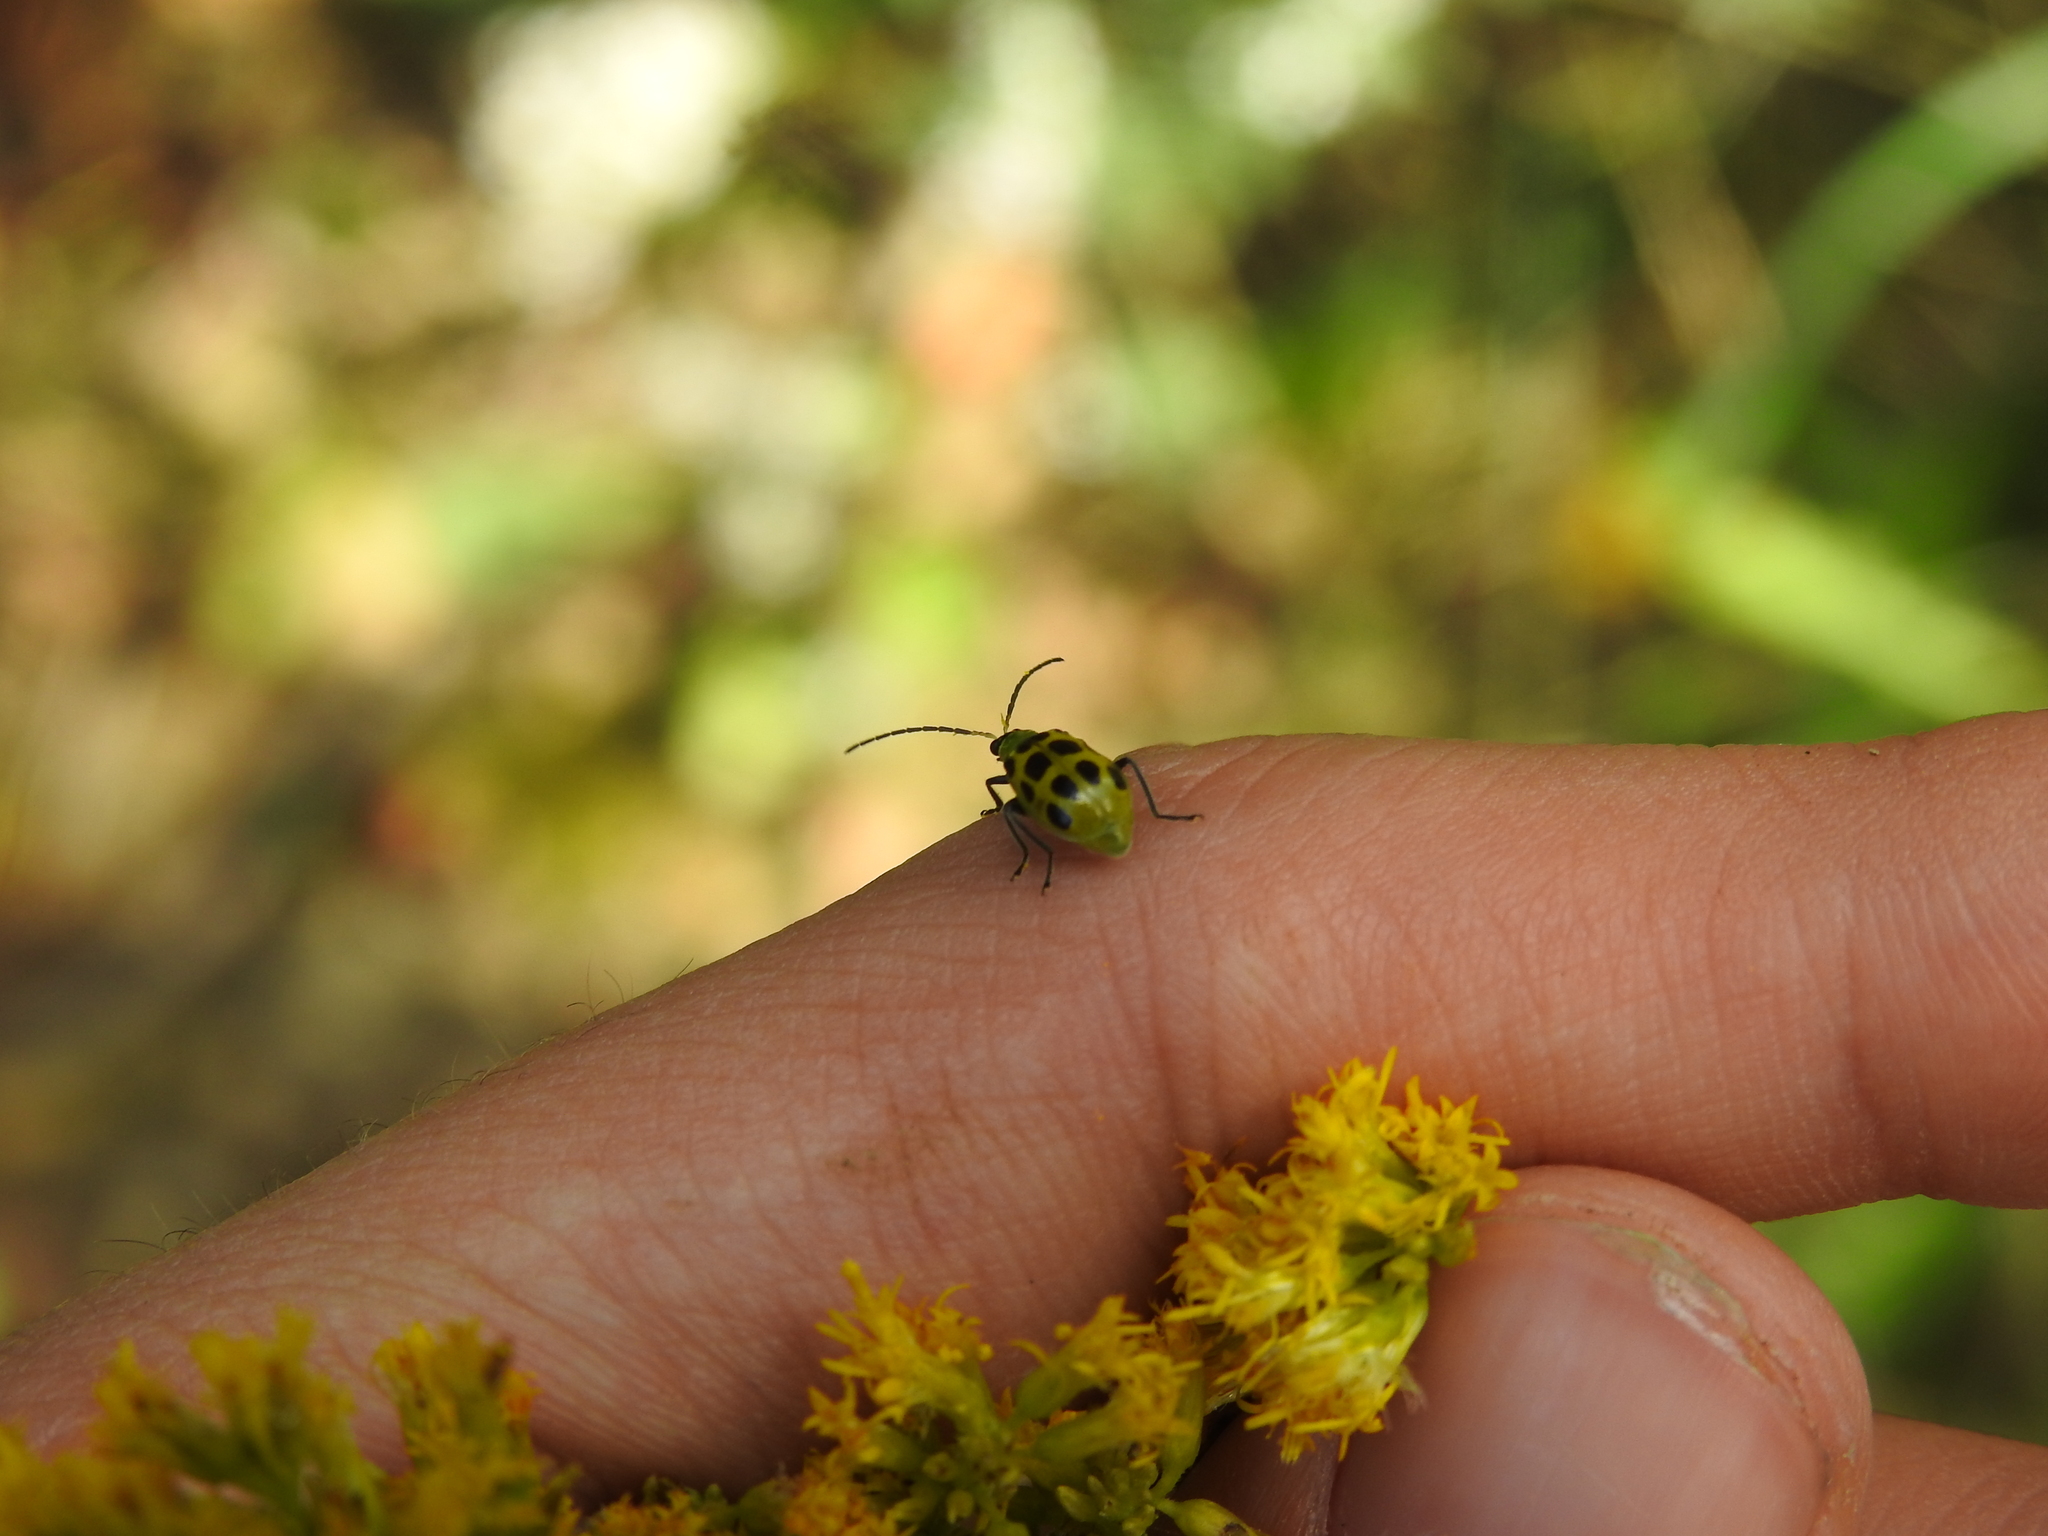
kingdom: Animalia
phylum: Arthropoda
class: Insecta
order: Coleoptera
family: Chrysomelidae
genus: Diabrotica
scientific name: Diabrotica undecimpunctata
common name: Spotted cucumber beetle
